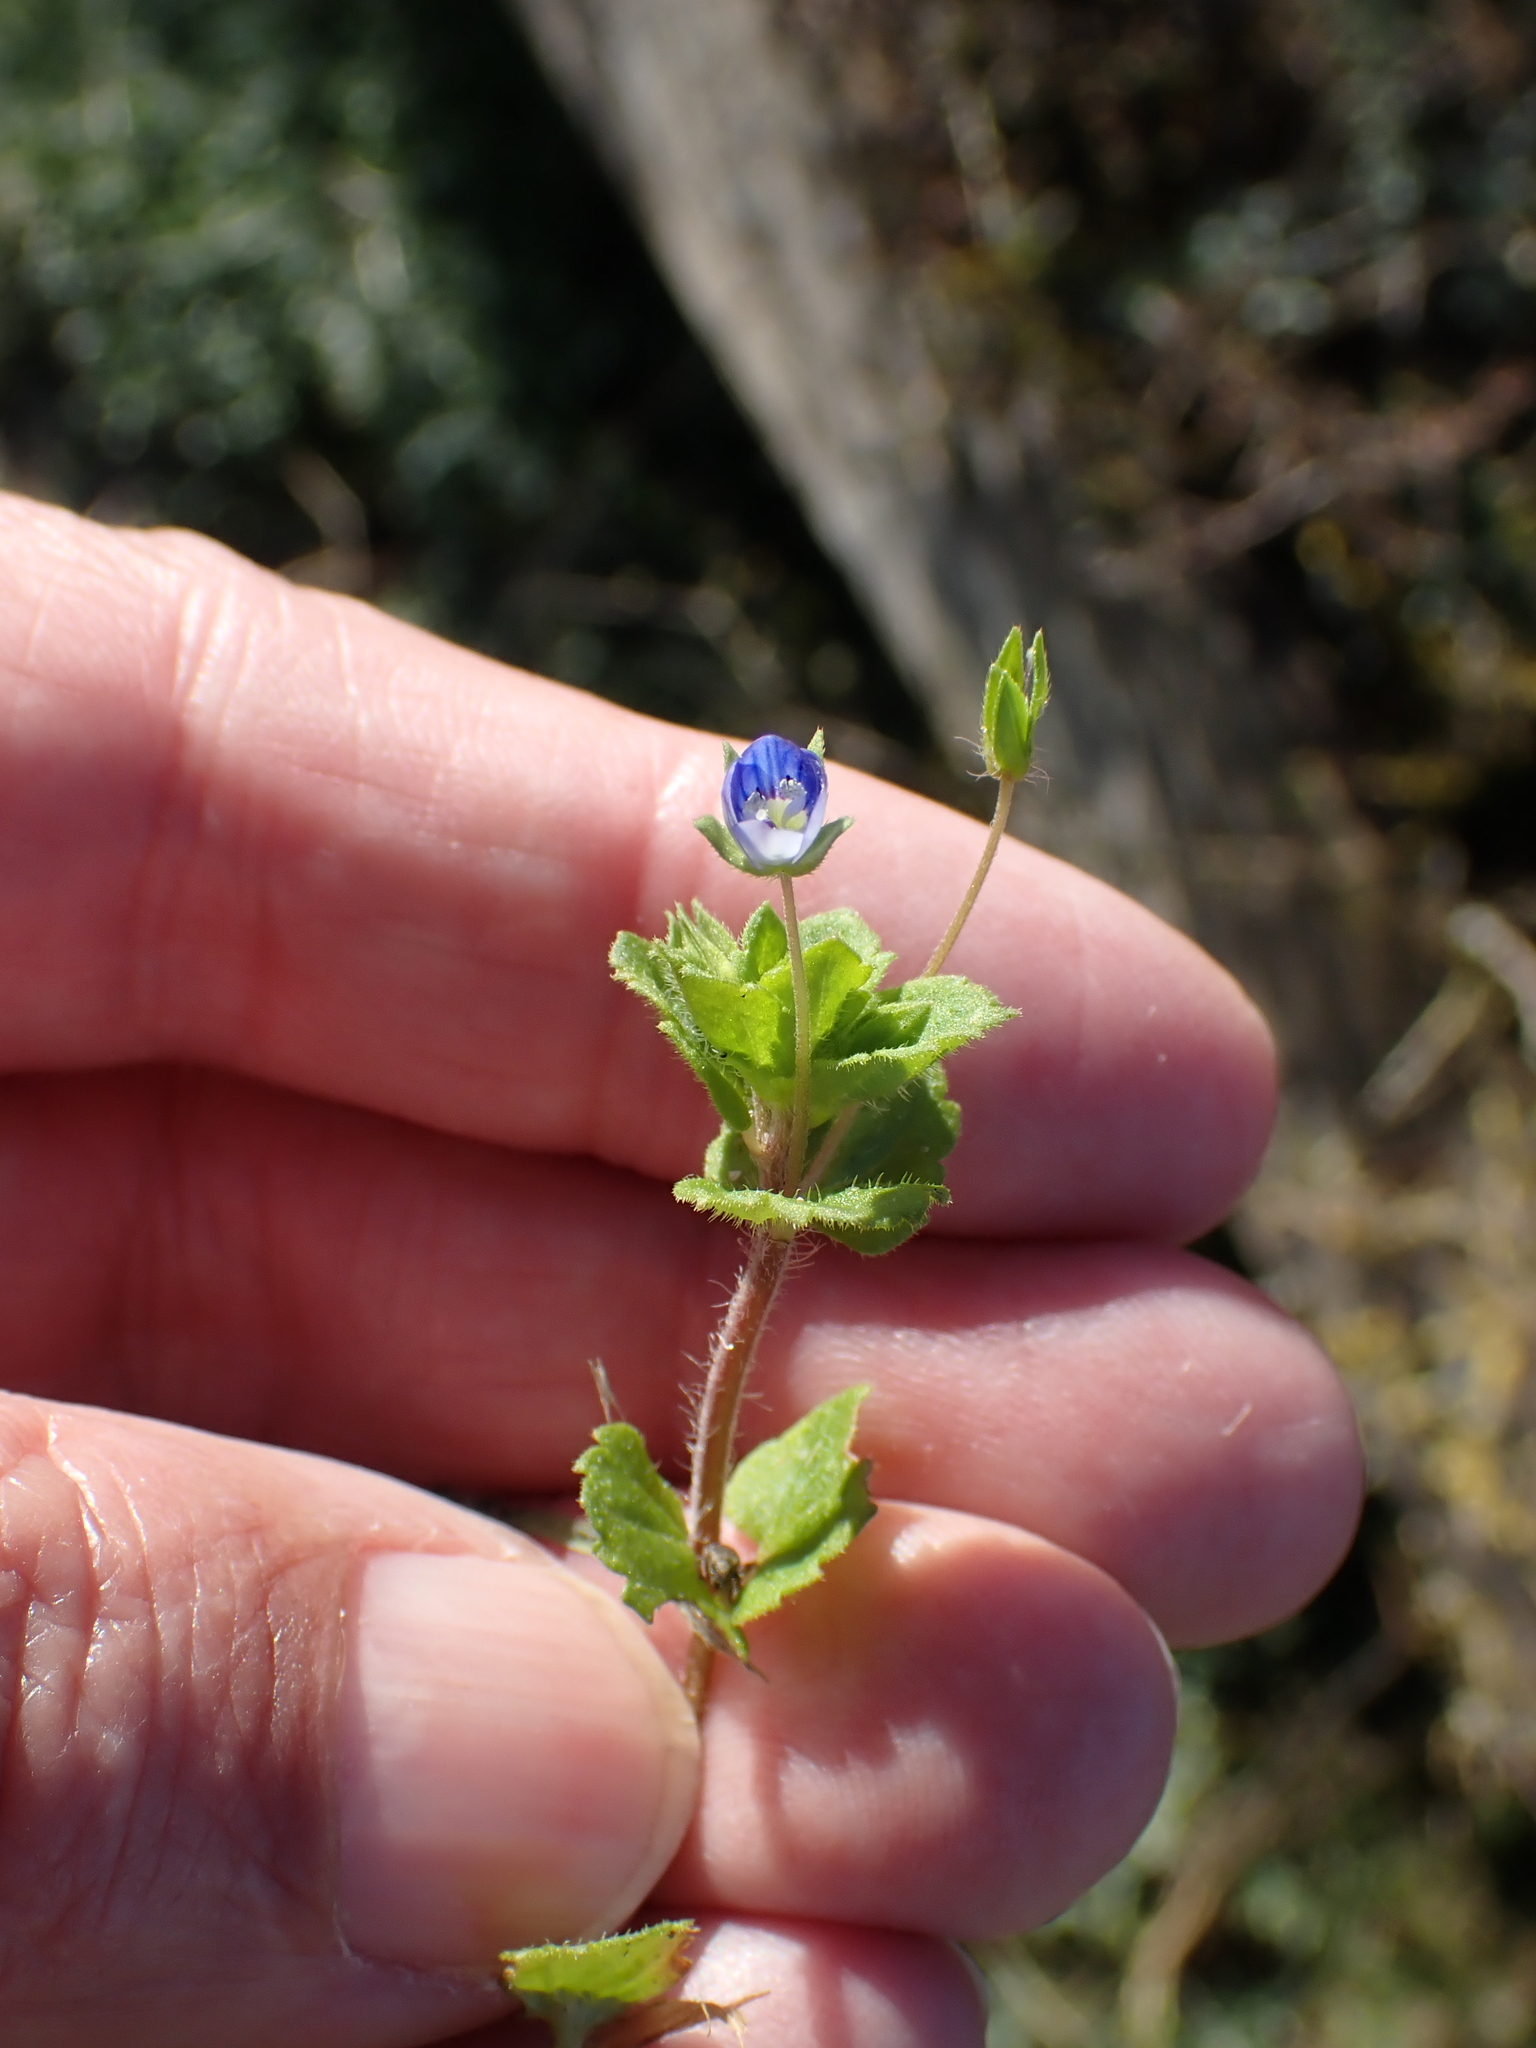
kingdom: Plantae
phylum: Tracheophyta
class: Magnoliopsida
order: Lamiales
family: Plantaginaceae
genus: Veronica
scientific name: Veronica persica
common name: Common field-speedwell
